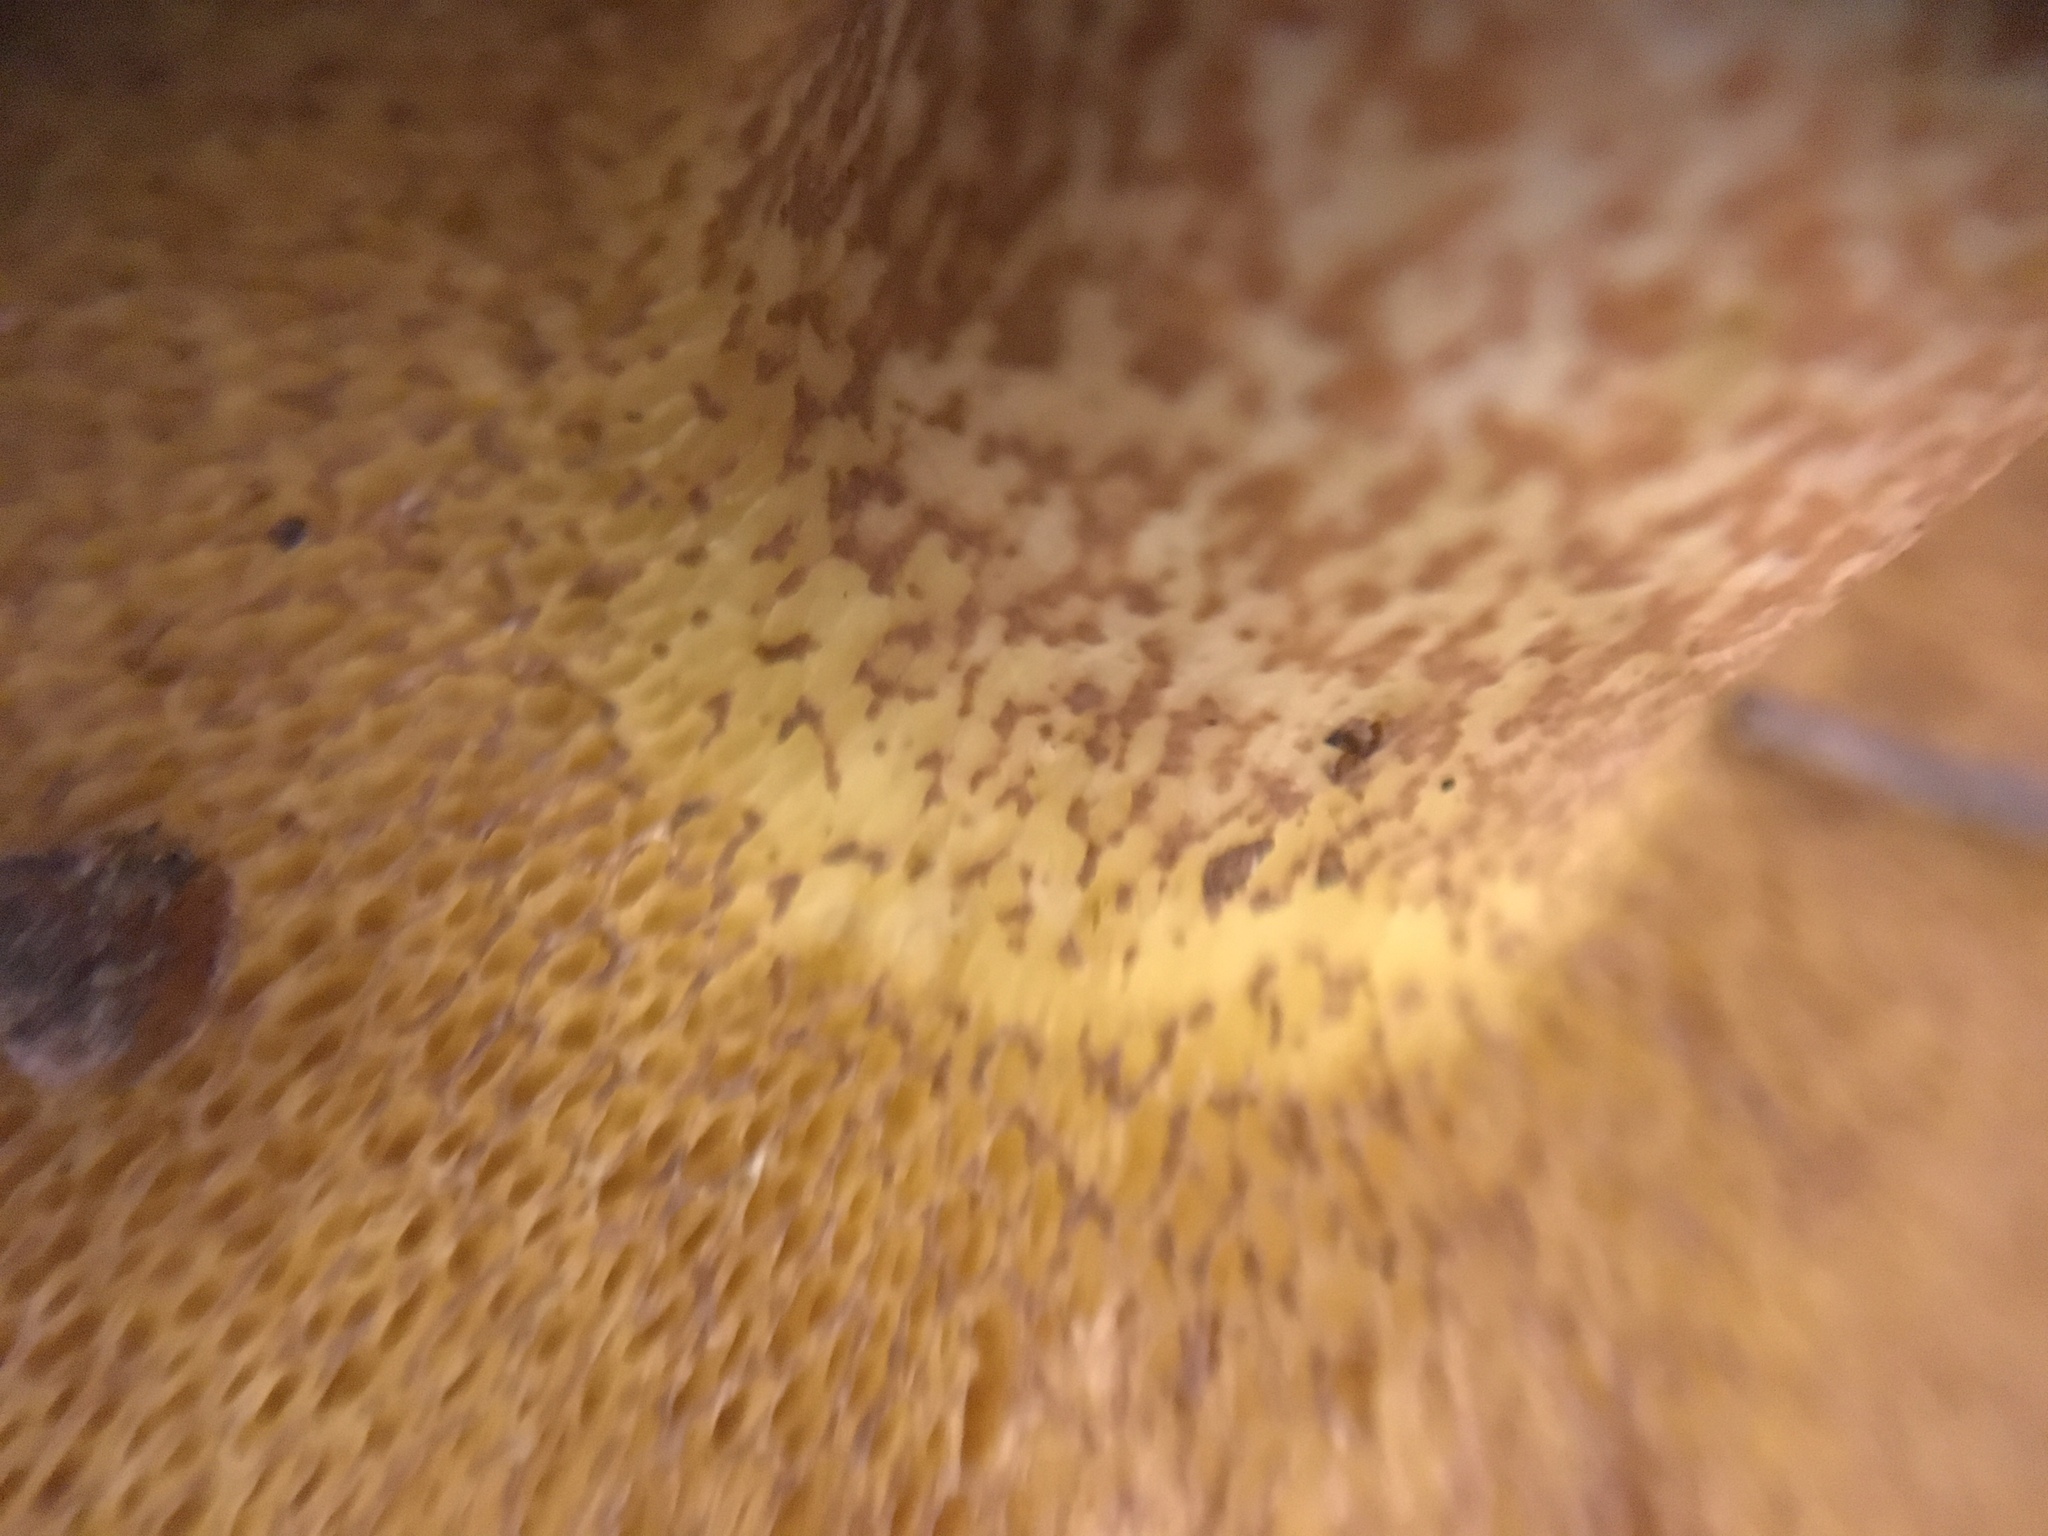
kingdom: Fungi
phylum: Basidiomycota
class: Agaricomycetes
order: Boletales
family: Suillaceae
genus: Suillus
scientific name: Suillus kaibabensis
